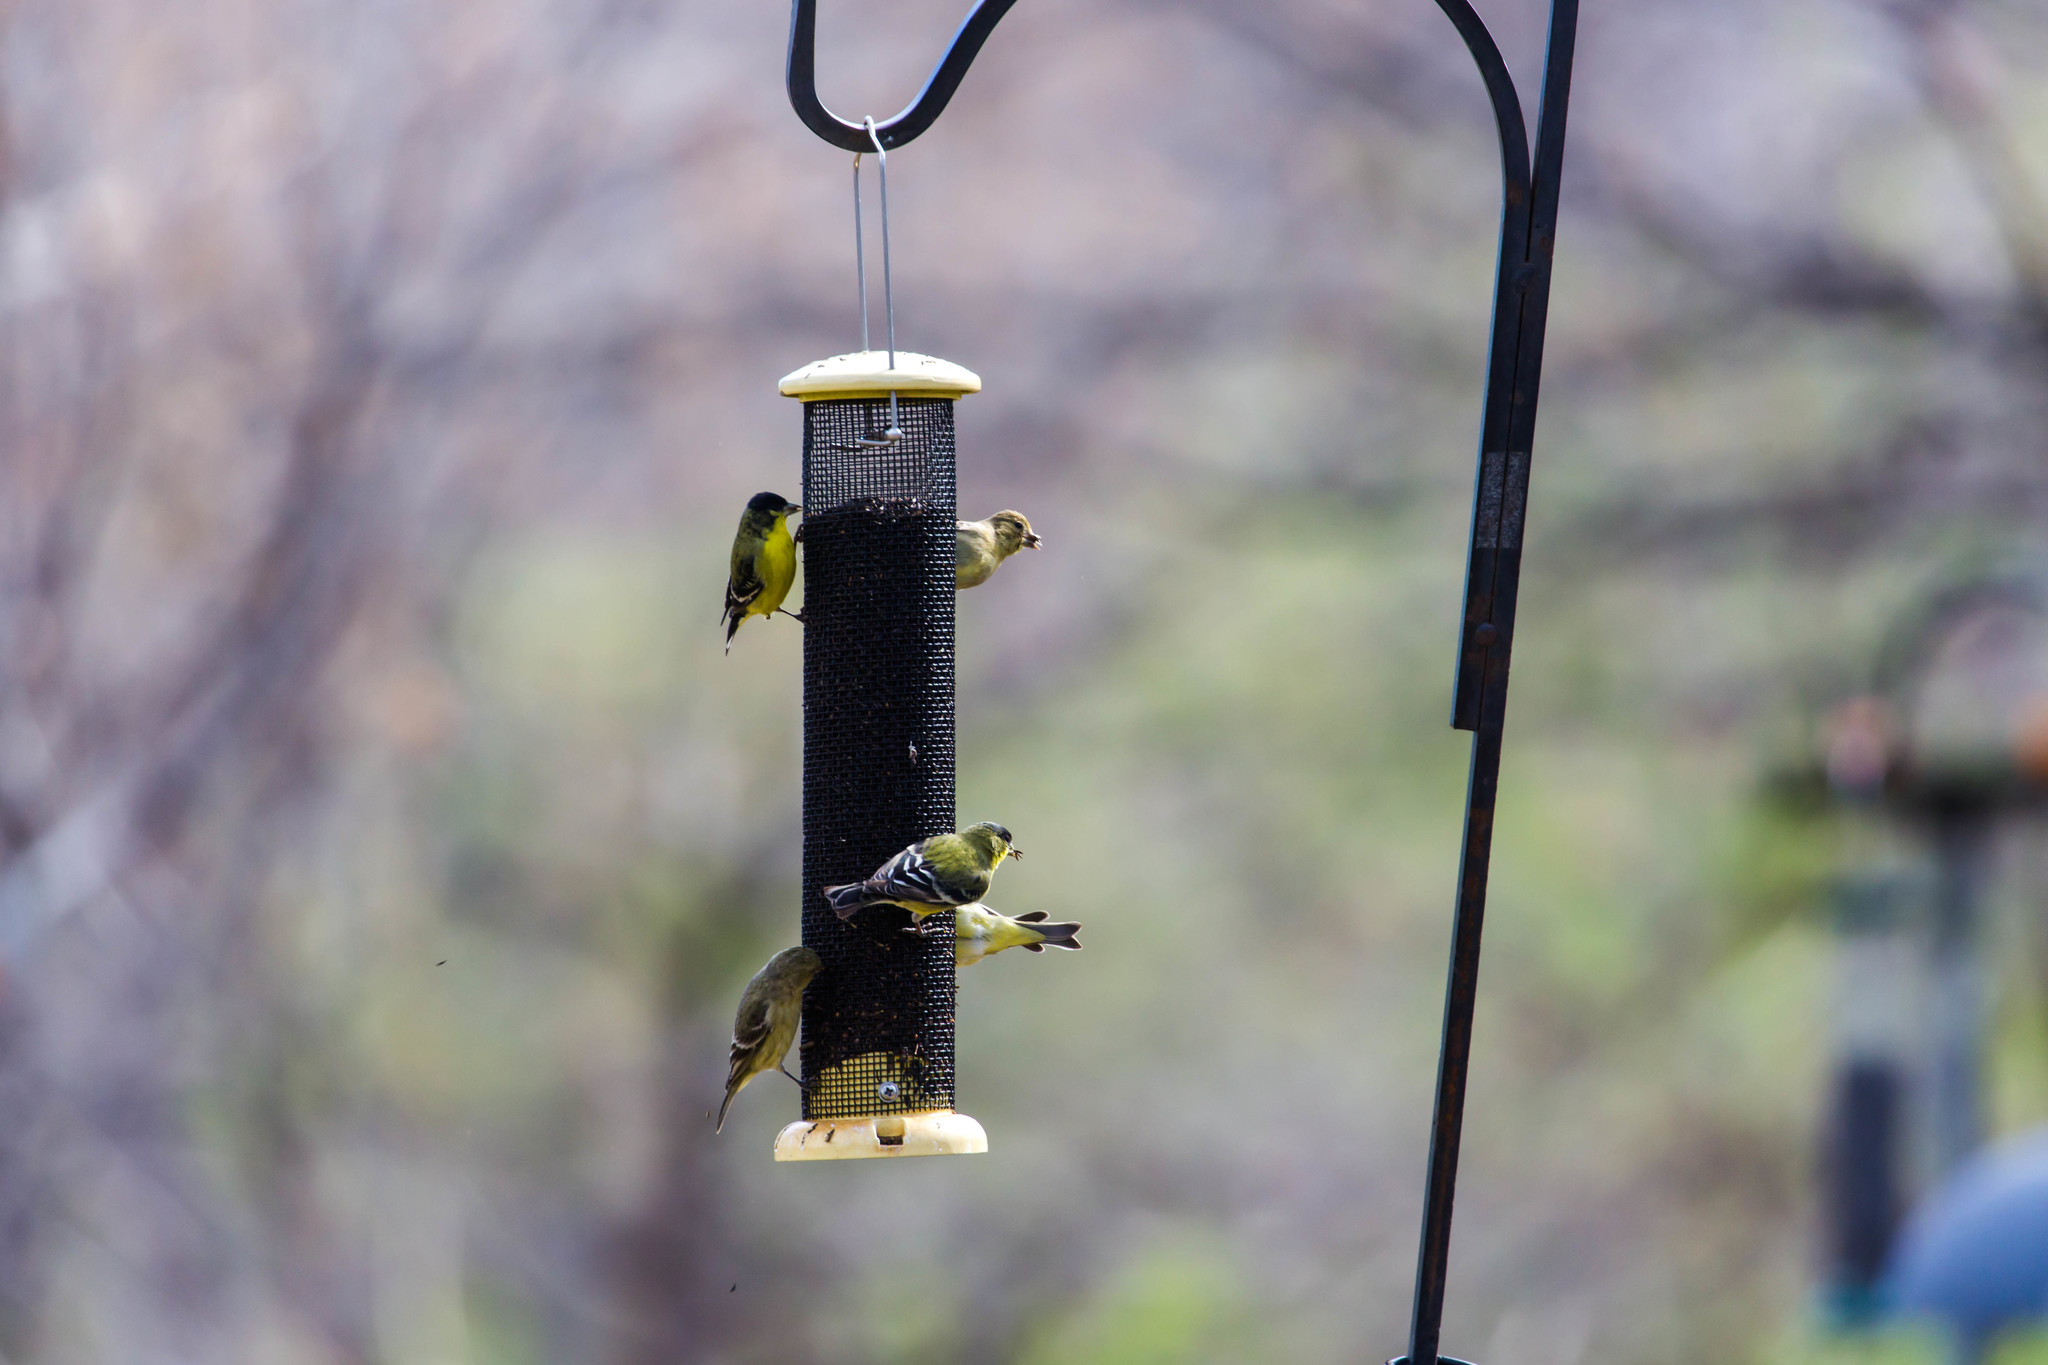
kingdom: Animalia
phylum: Chordata
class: Aves
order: Passeriformes
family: Fringillidae
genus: Spinus
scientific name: Spinus psaltria
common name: Lesser goldfinch
